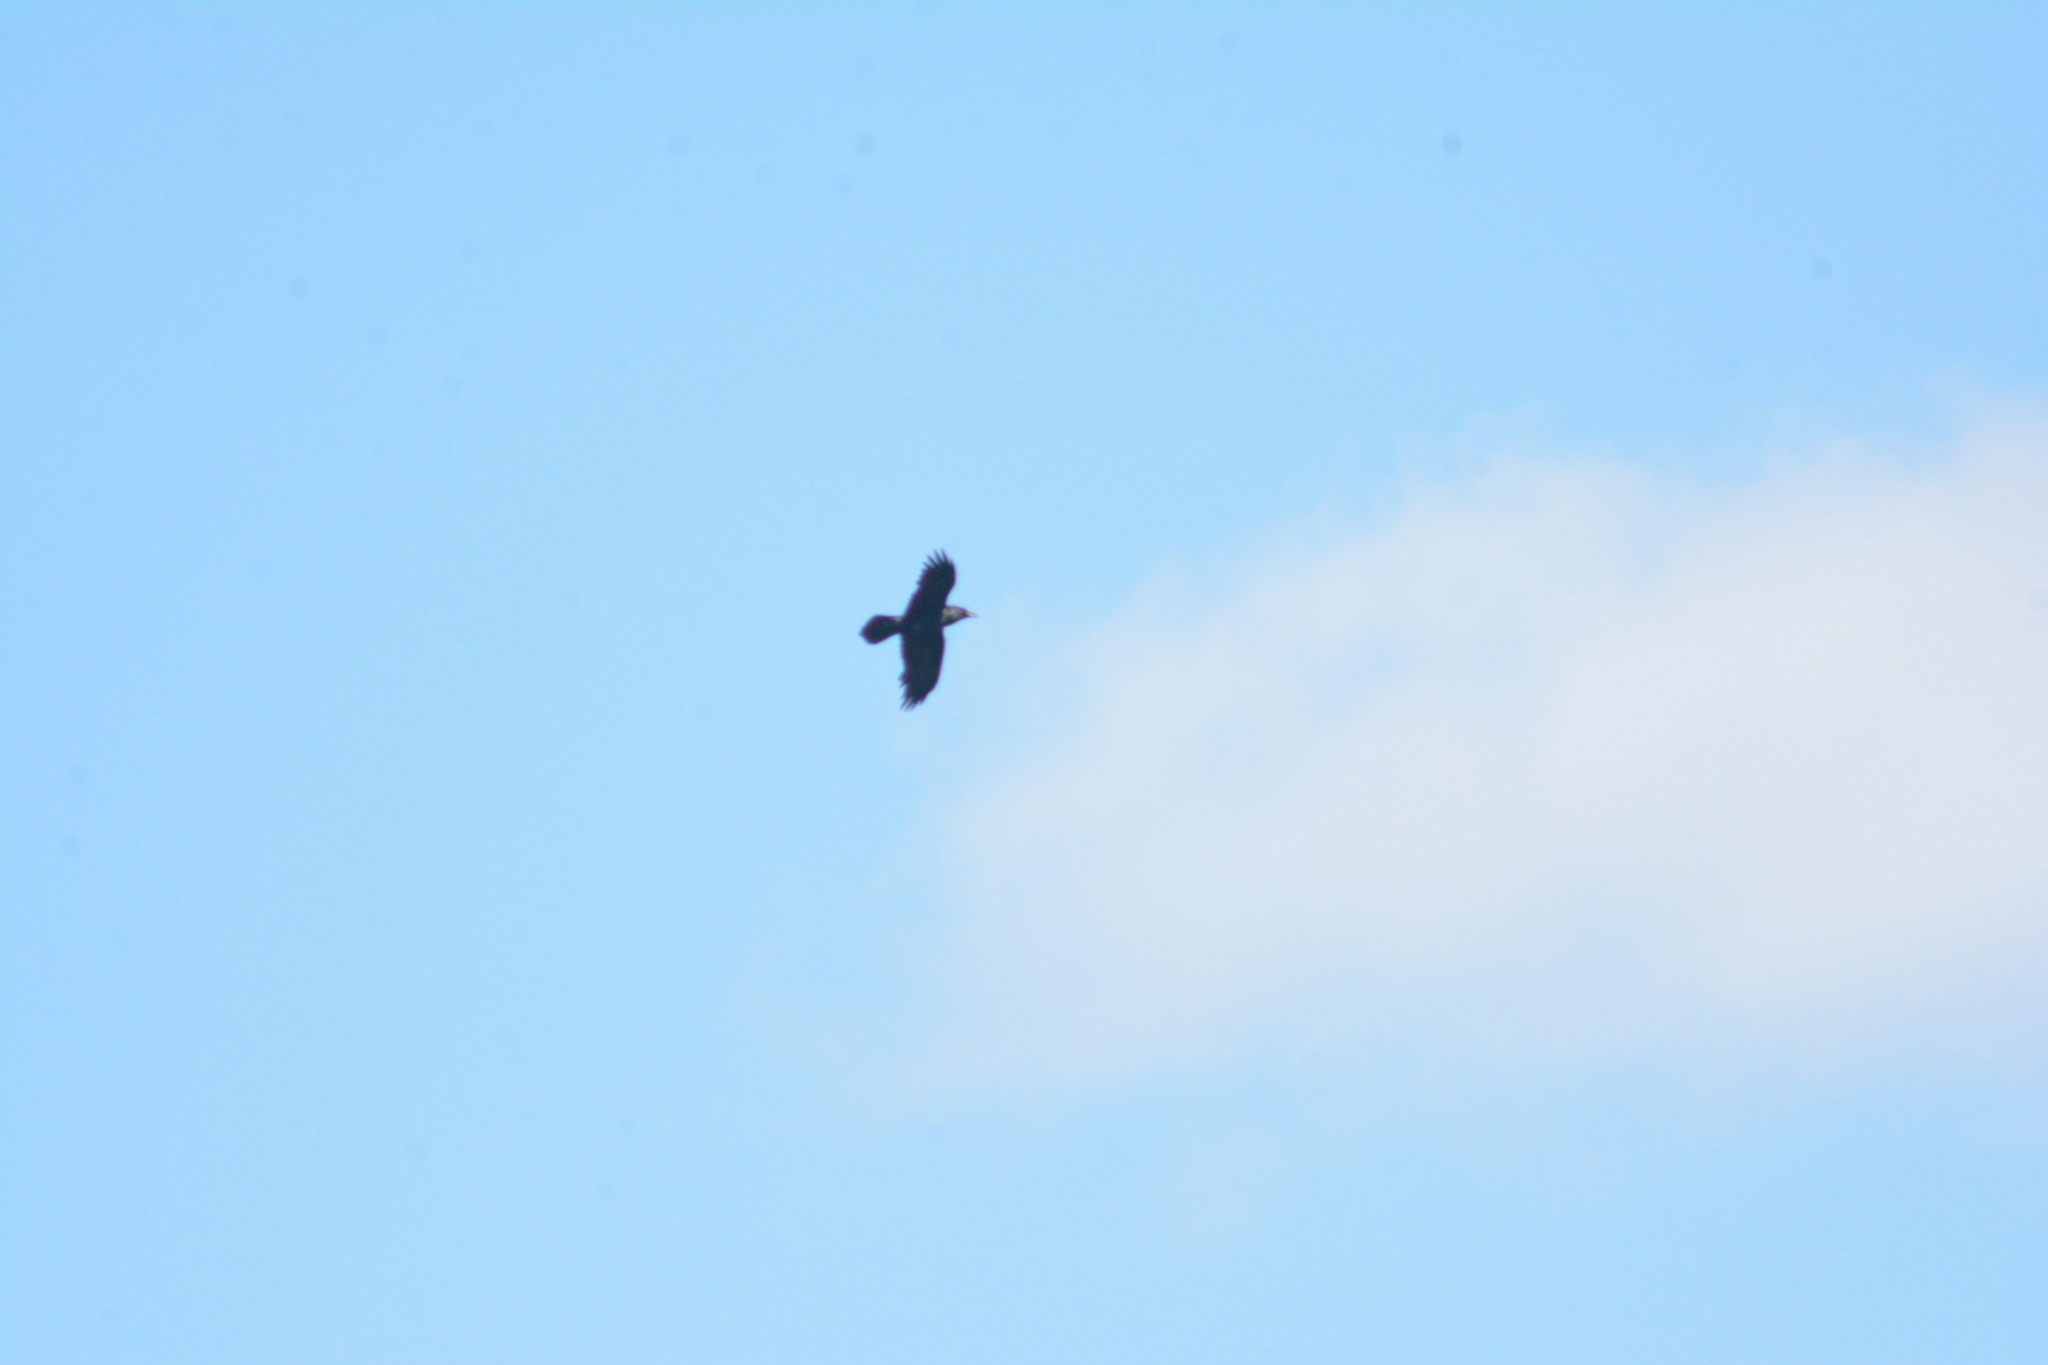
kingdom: Animalia
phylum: Chordata
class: Aves
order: Passeriformes
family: Corvidae
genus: Corvus
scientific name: Corvus corax
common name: Common raven
